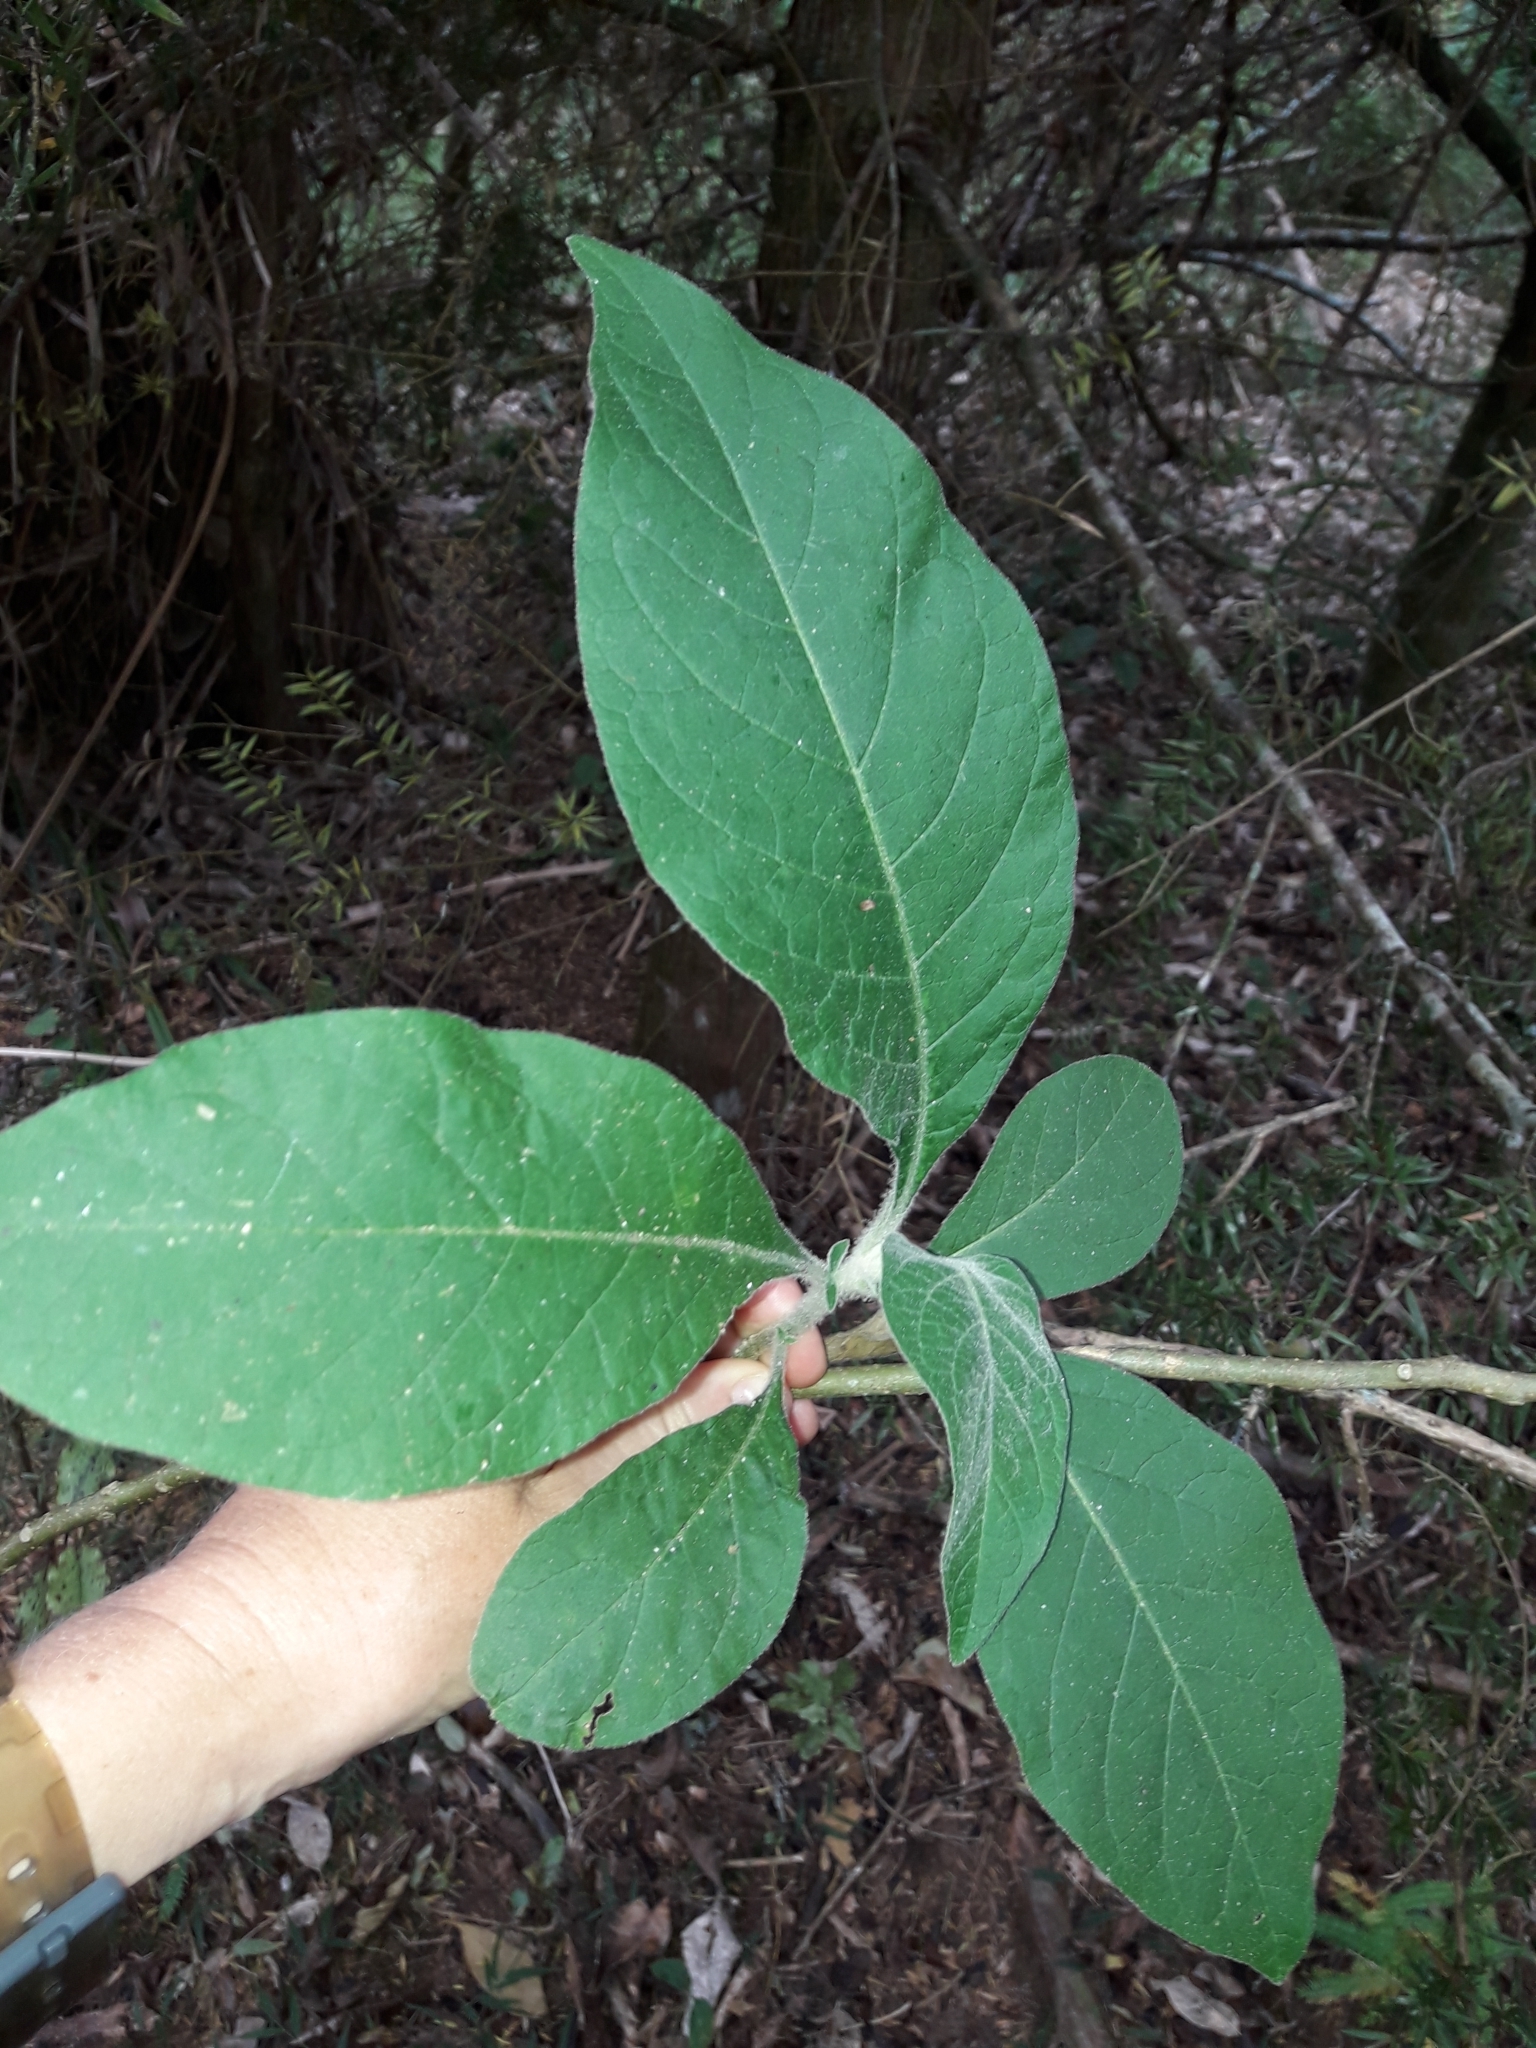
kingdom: Plantae
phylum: Tracheophyta
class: Magnoliopsida
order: Solanales
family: Solanaceae
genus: Solanum
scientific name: Solanum mauritianum
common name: Earleaf nightshade
